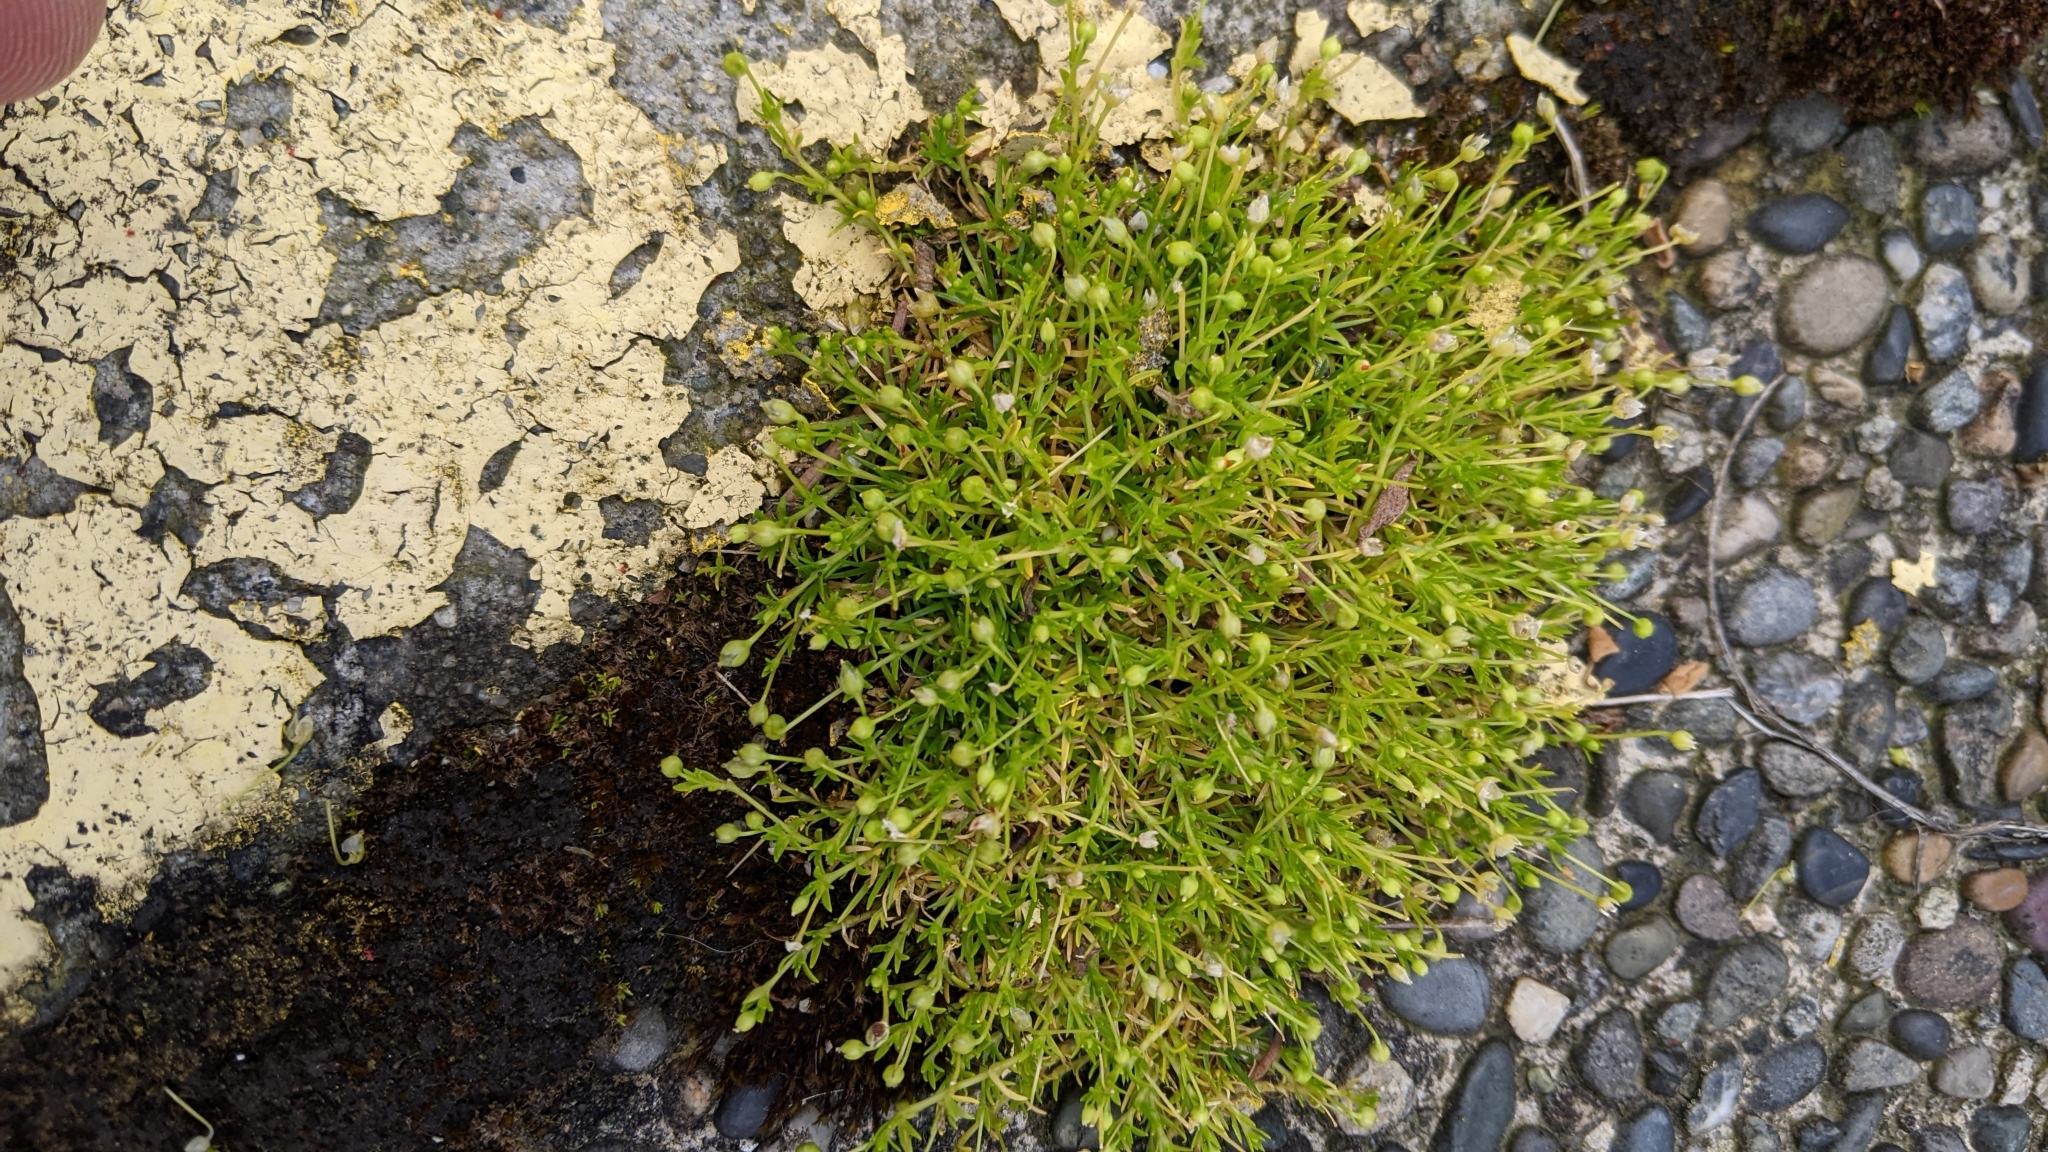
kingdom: Plantae
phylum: Tracheophyta
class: Magnoliopsida
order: Caryophyllales
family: Caryophyllaceae
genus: Sagina
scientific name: Sagina procumbens
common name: Procumbent pearlwort
